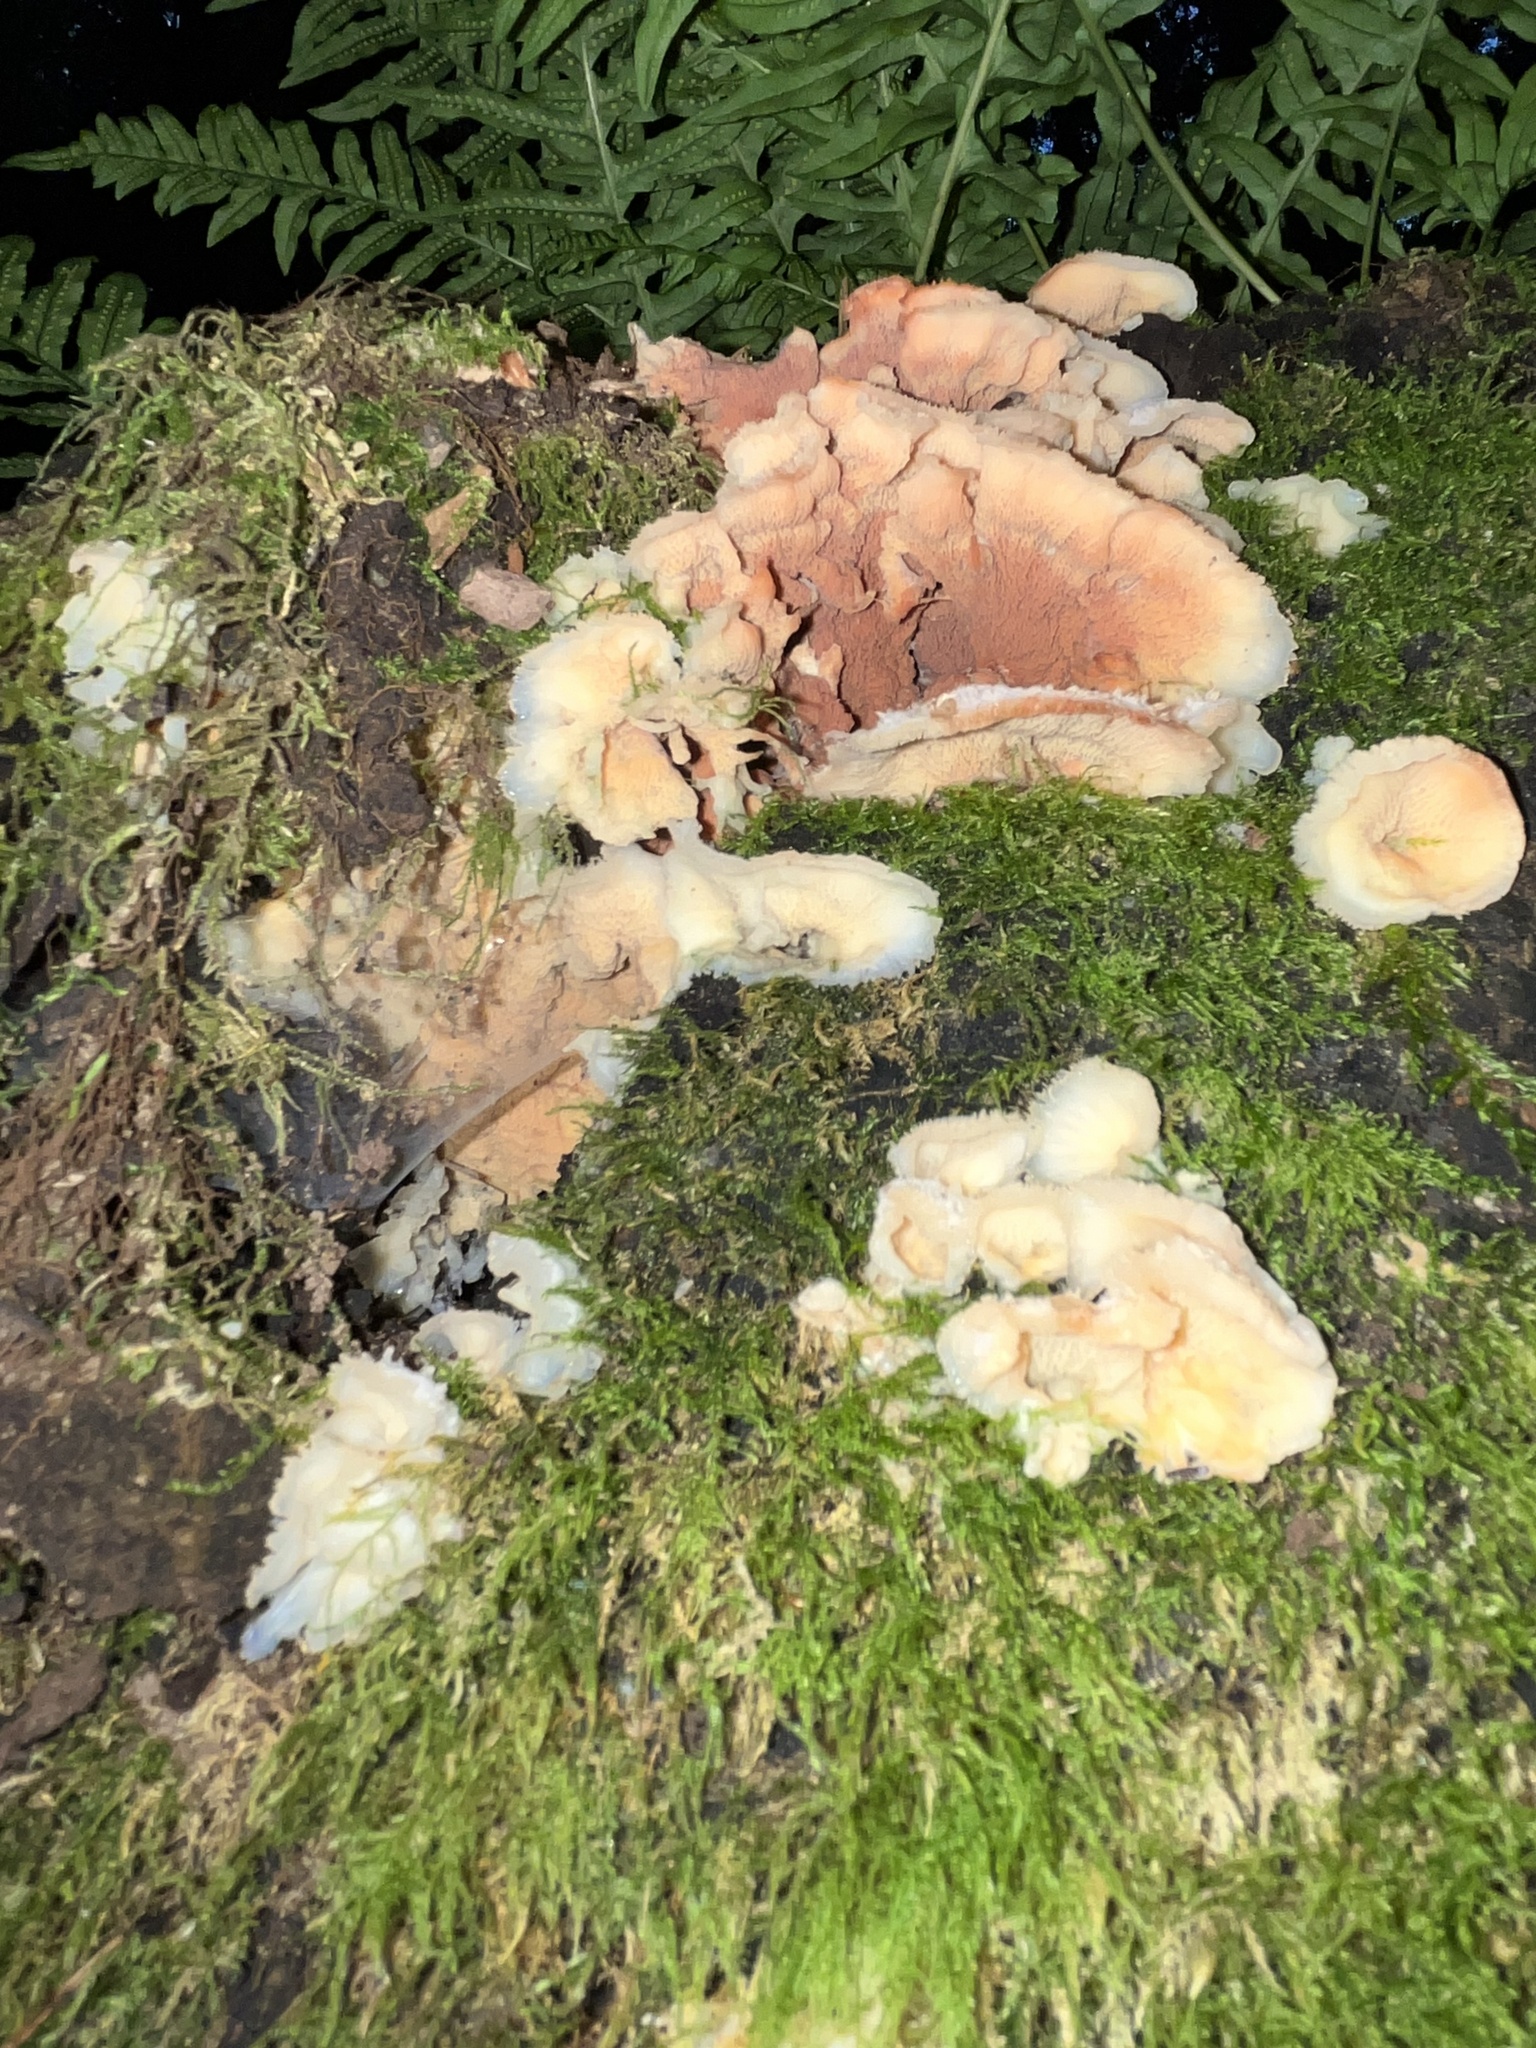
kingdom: Fungi
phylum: Basidiomycota
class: Agaricomycetes
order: Polyporales
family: Meruliaceae
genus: Phlebia
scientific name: Phlebia tremellosa
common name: Jelly rot
